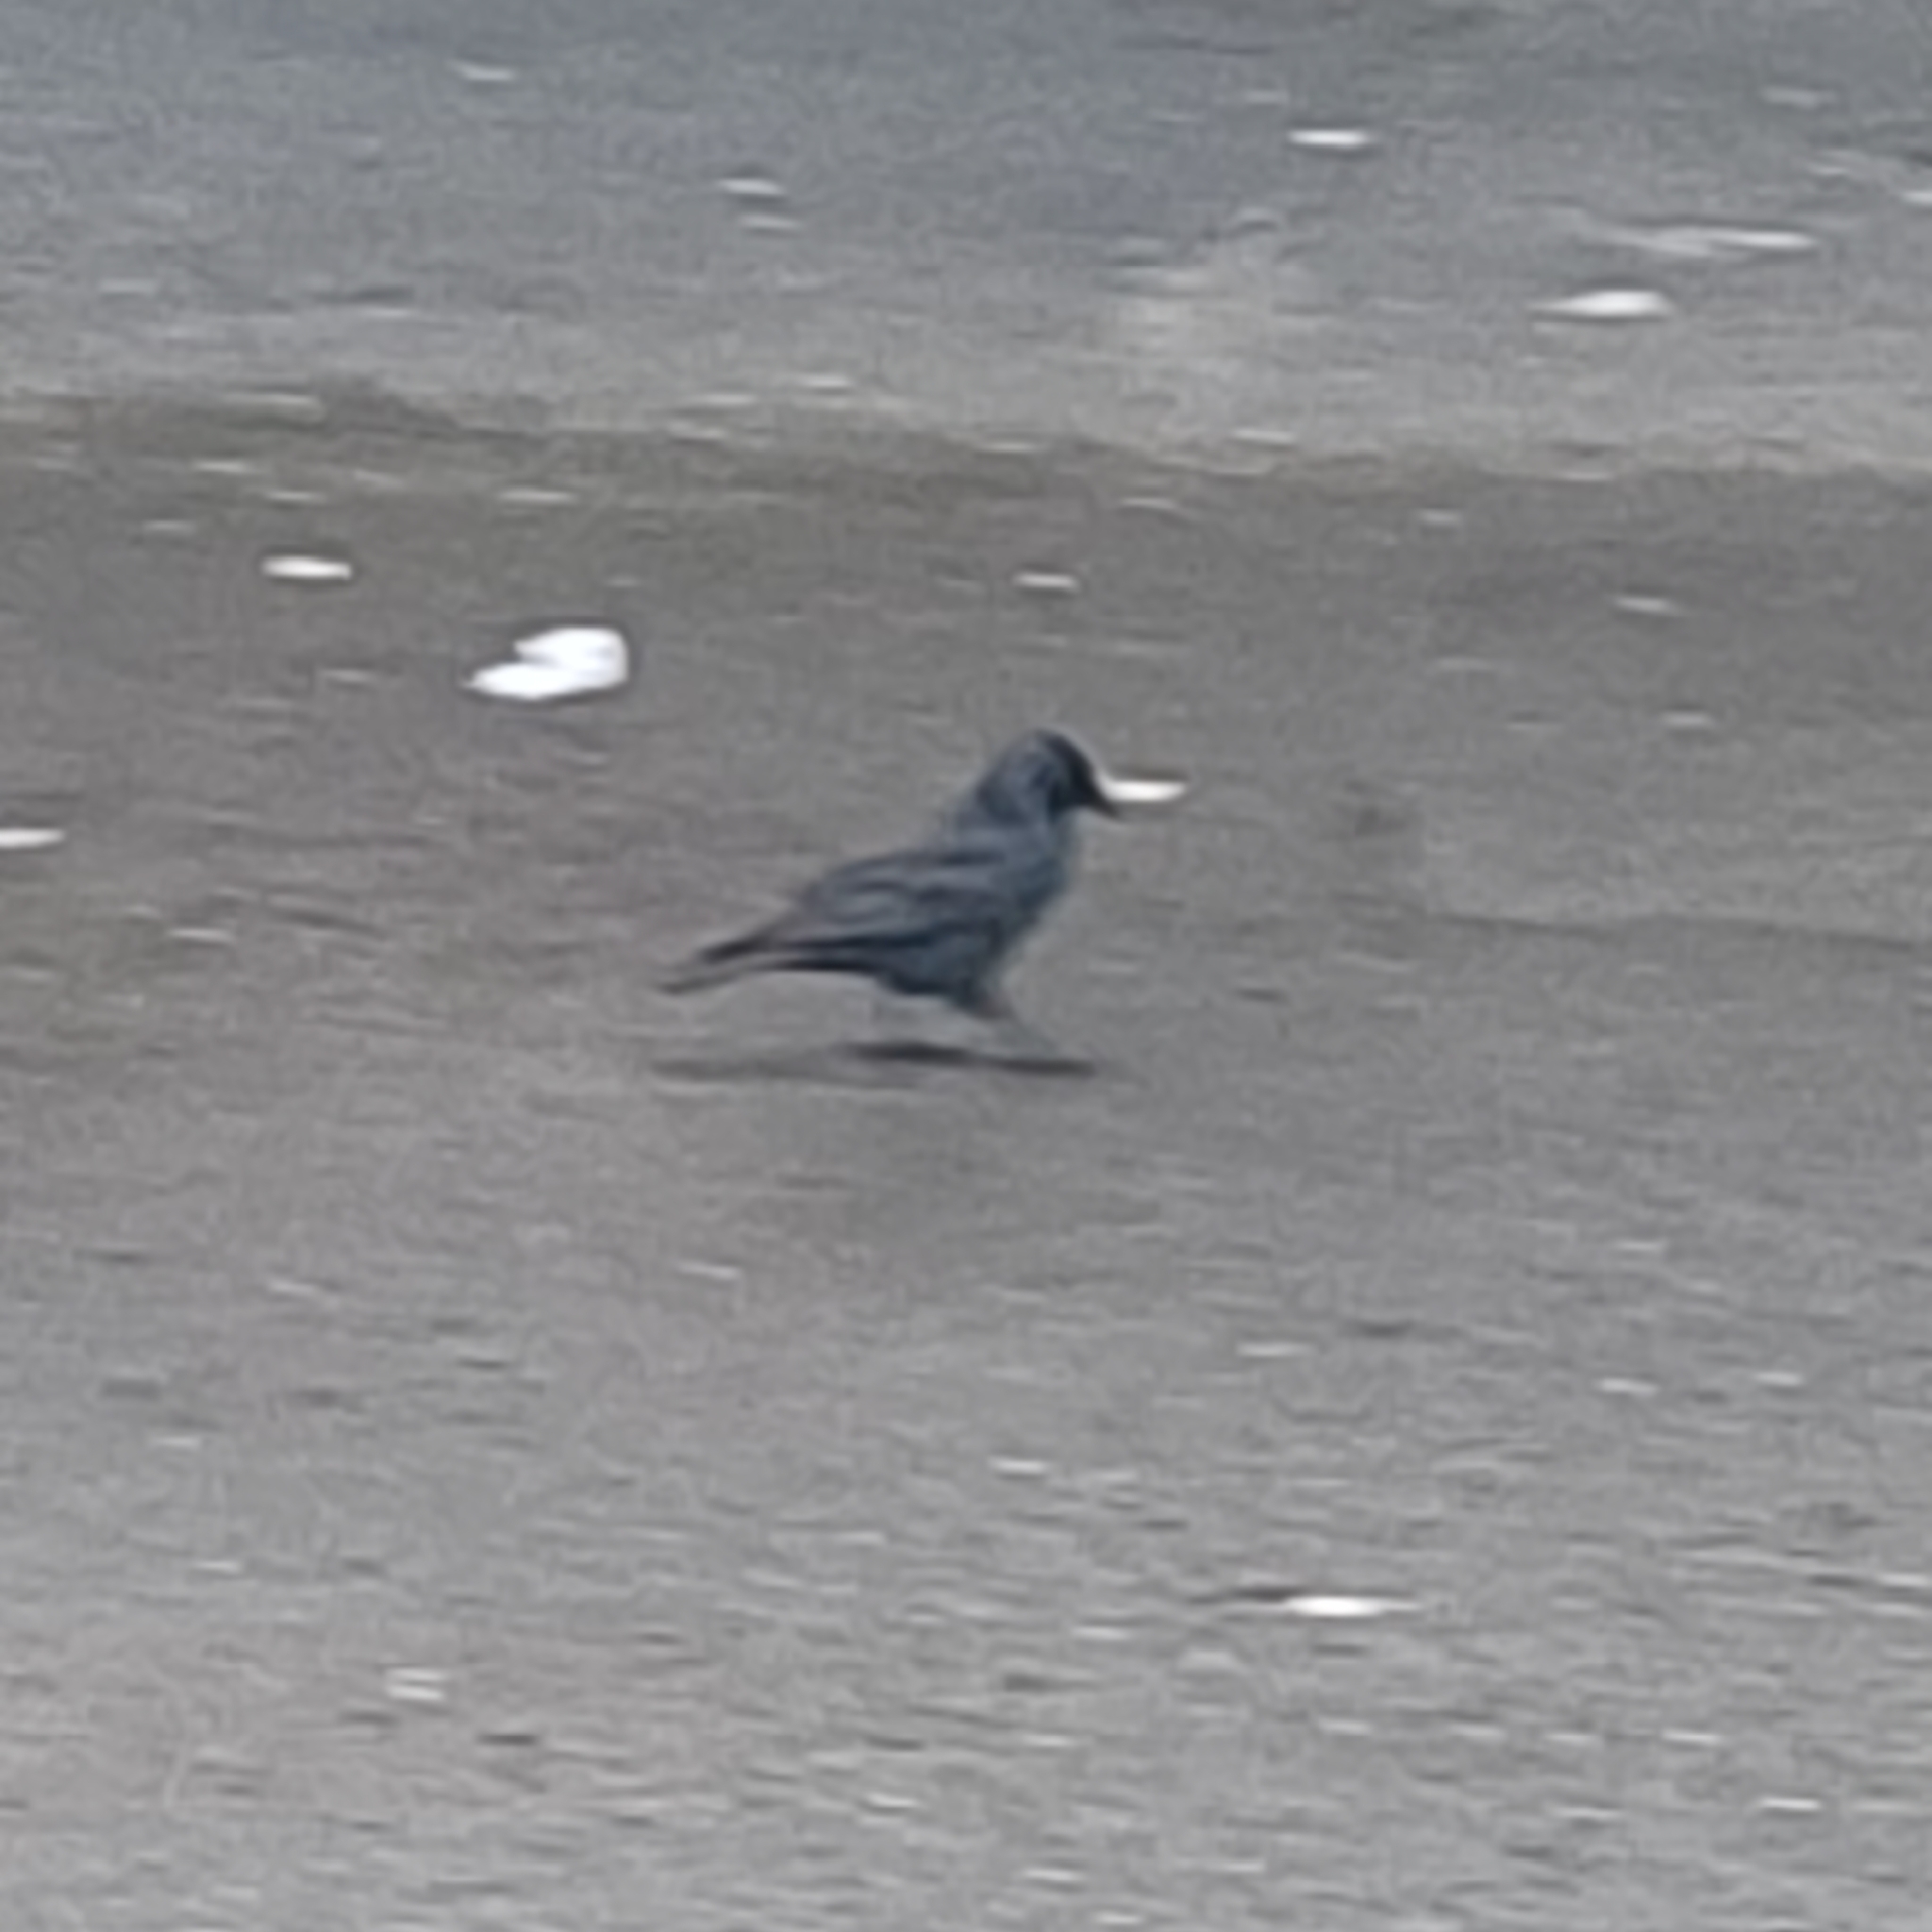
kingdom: Animalia
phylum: Chordata
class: Aves
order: Passeriformes
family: Corvidae
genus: Coloeus
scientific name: Coloeus monedula
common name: Western jackdaw
